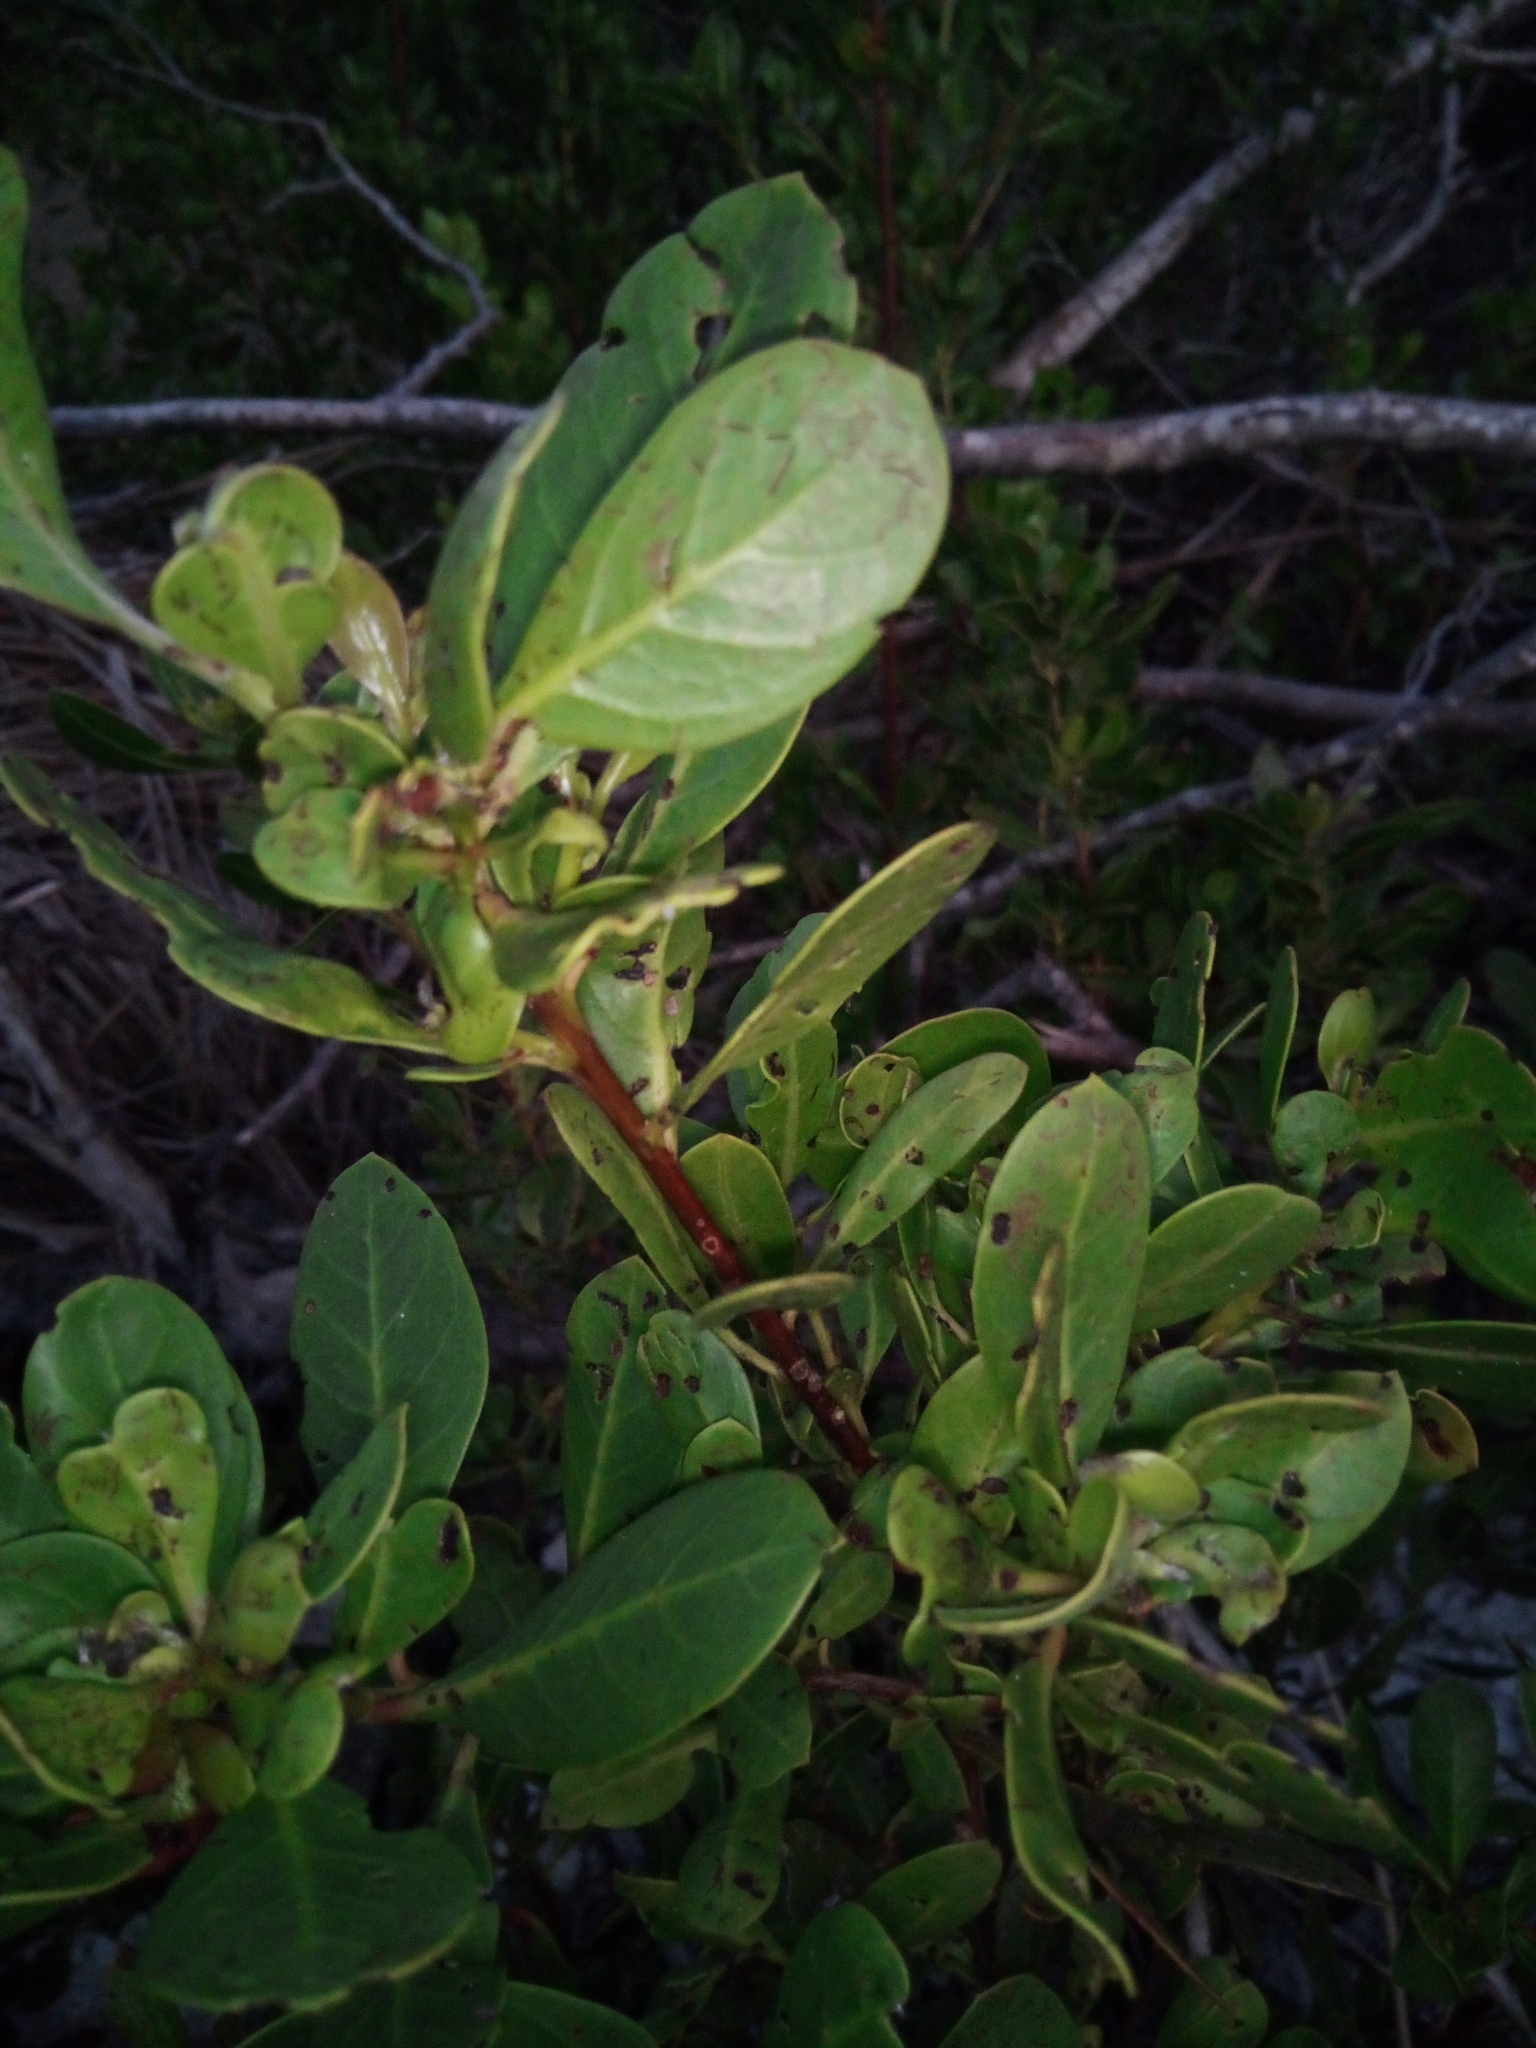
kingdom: Plantae
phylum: Tracheophyta
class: Magnoliopsida
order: Myrtales
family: Combretaceae
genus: Conocarpus
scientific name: Conocarpus erectus
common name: Button mangrove
